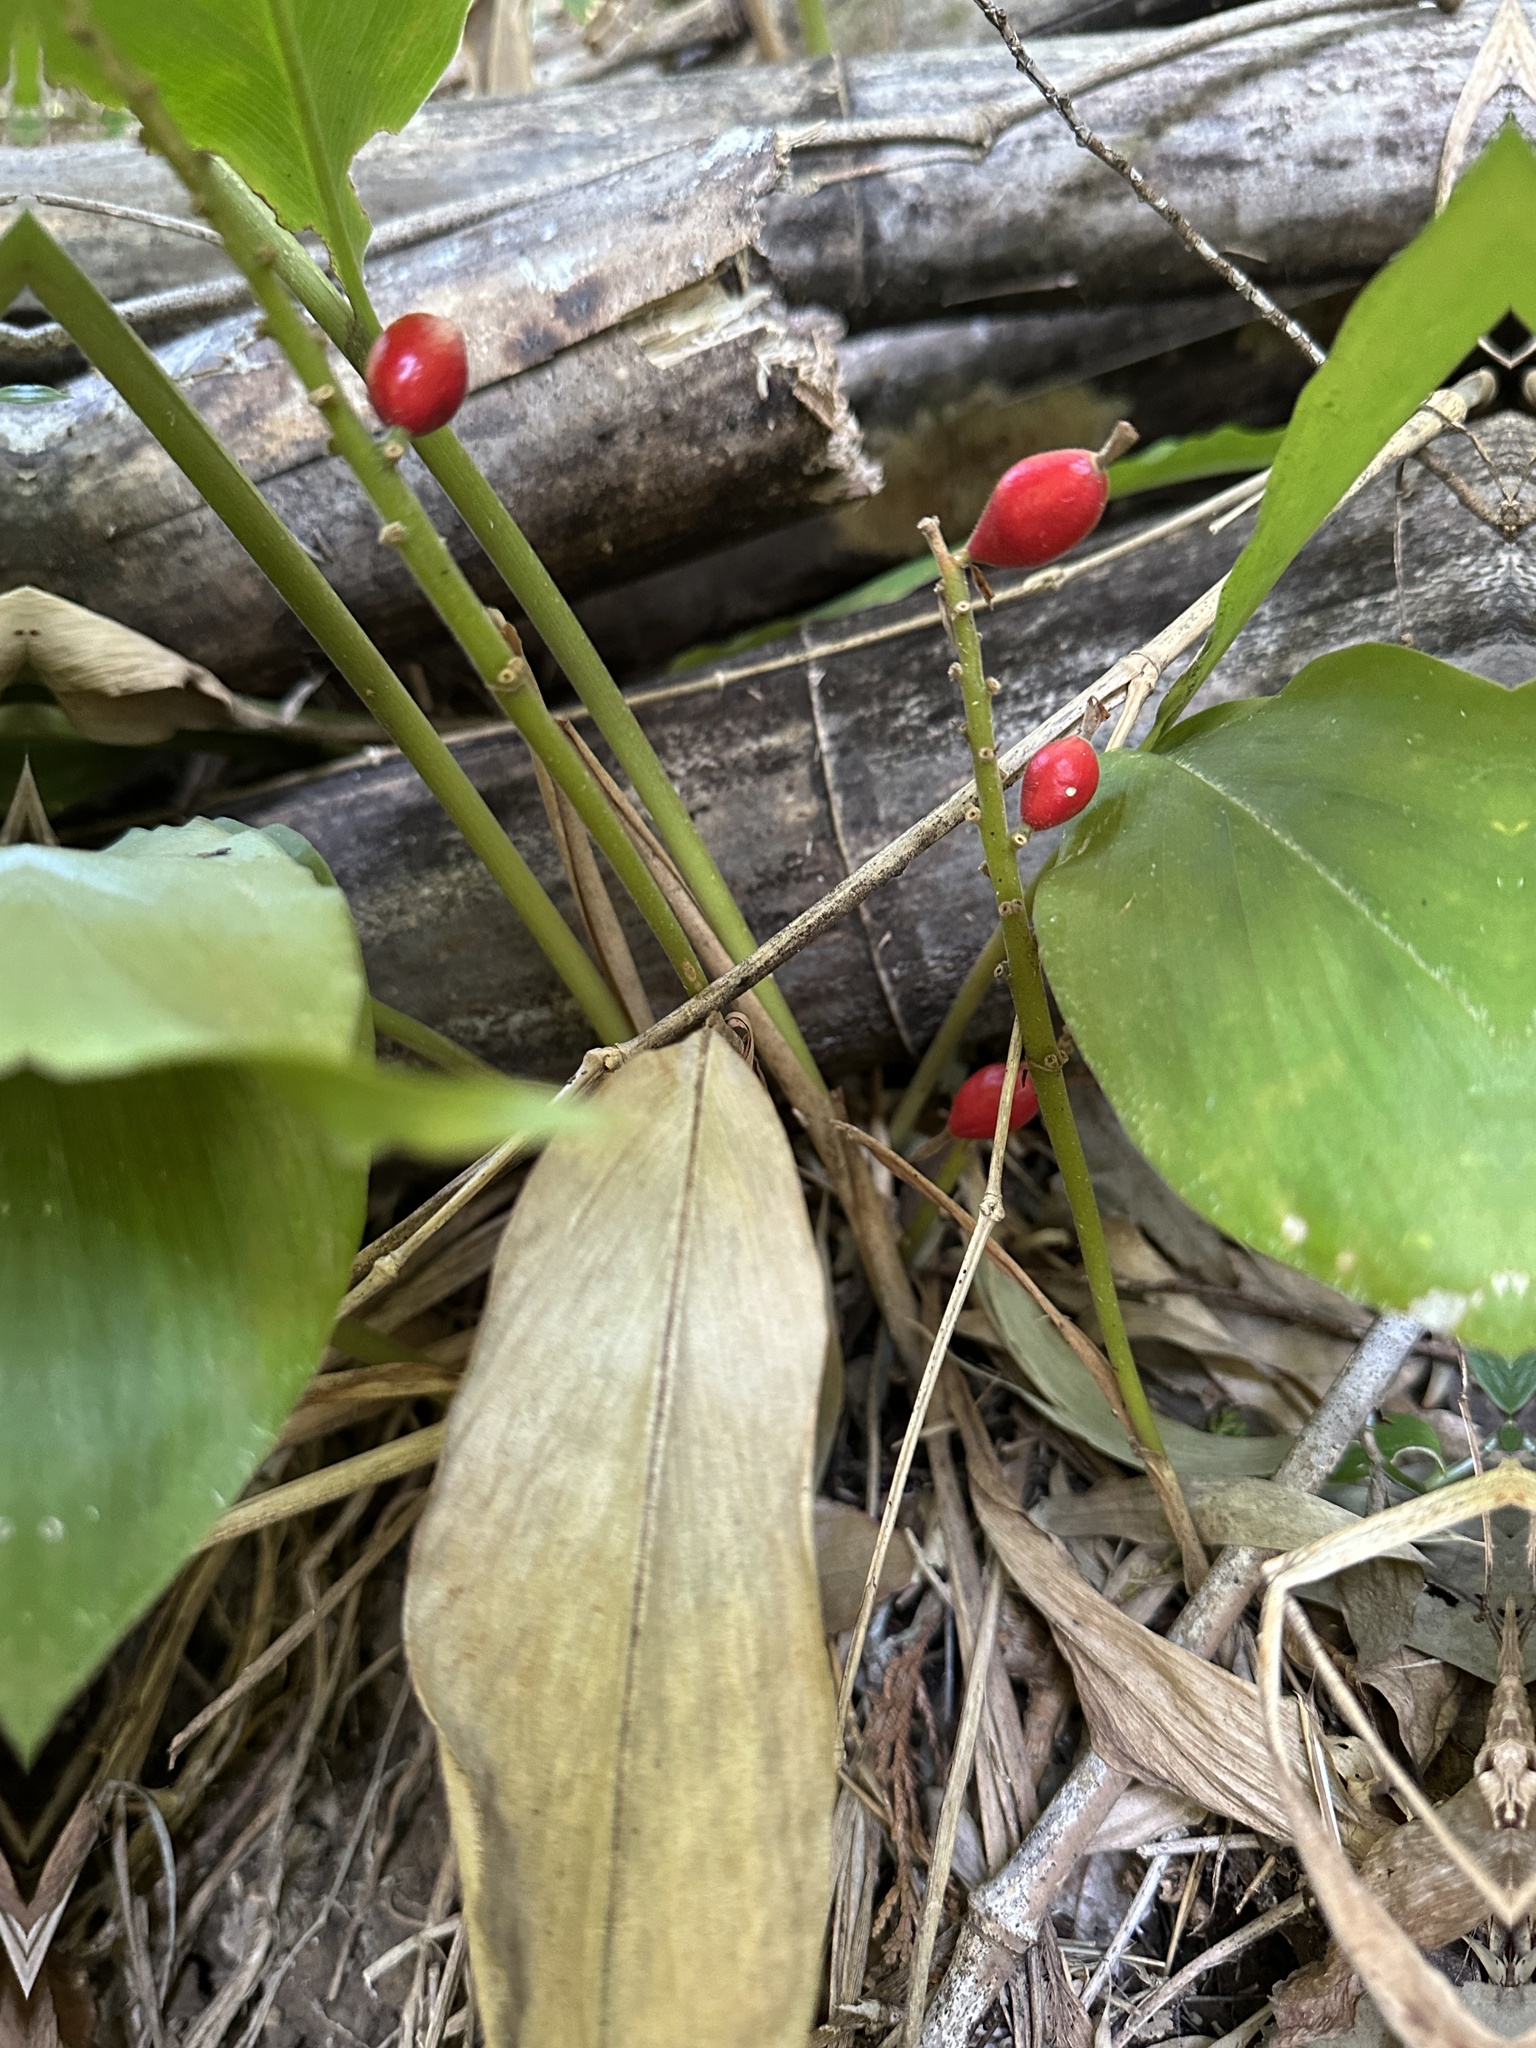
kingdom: Plantae
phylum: Tracheophyta
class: Liliopsida
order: Zingiberales
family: Zingiberaceae
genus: Alpinia
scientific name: Alpinia japonica
